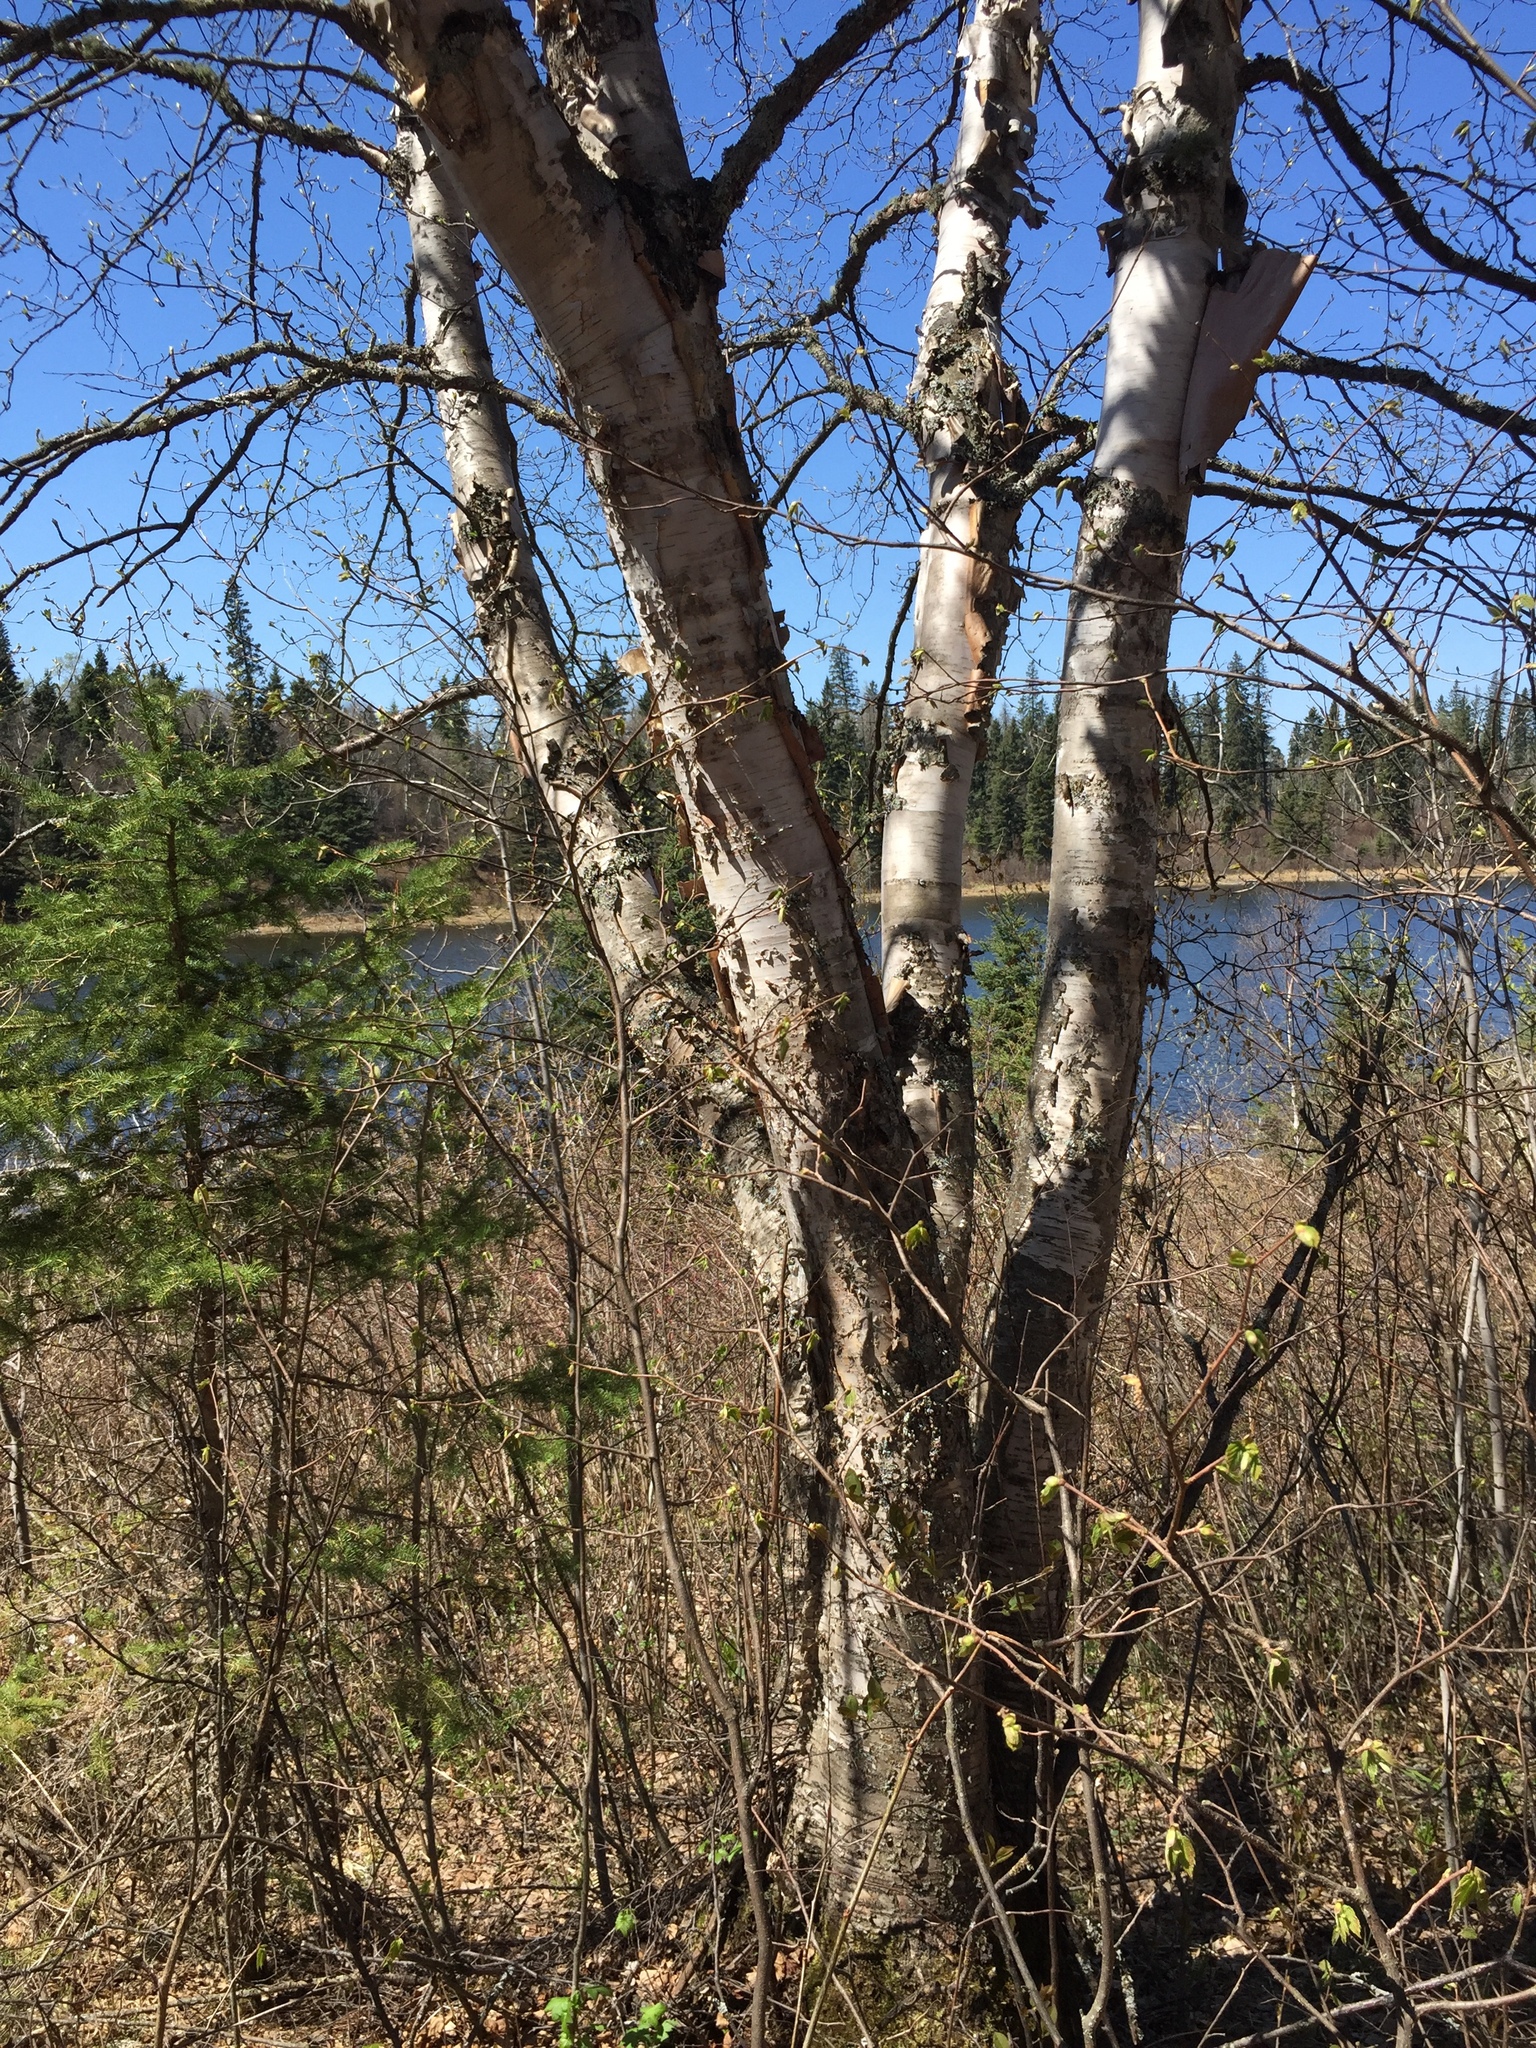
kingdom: Plantae
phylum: Tracheophyta
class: Magnoliopsida
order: Fagales
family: Betulaceae
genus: Betula
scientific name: Betula papyrifera
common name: Paper birch
